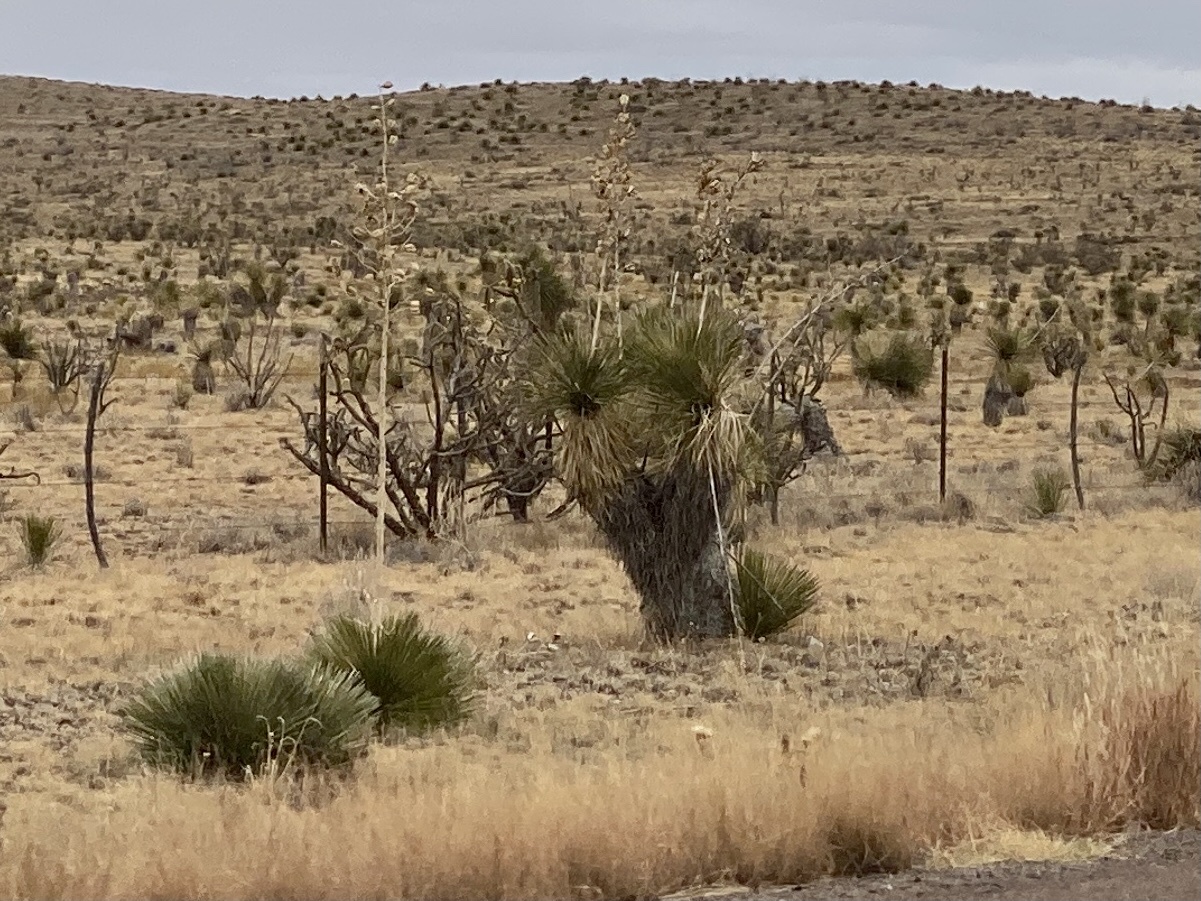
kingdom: Plantae
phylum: Tracheophyta
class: Liliopsida
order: Asparagales
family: Asparagaceae
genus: Yucca
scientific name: Yucca elata
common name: Palmella
